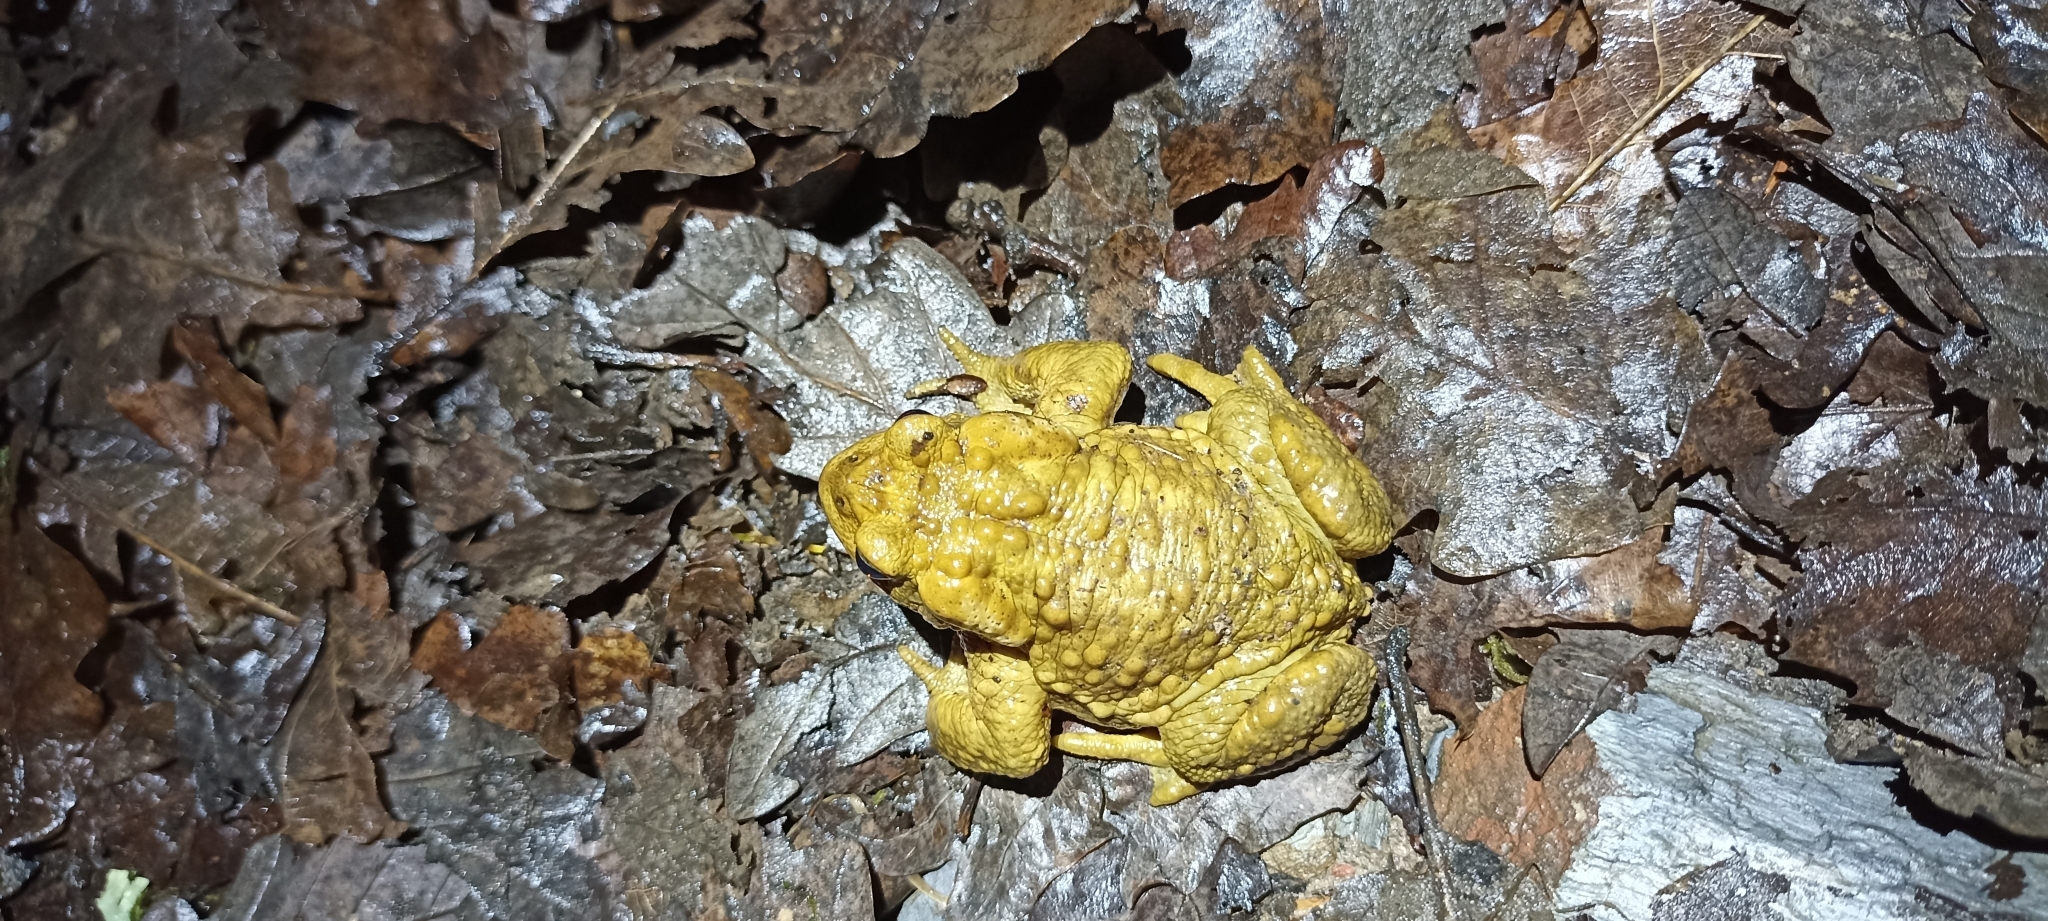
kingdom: Animalia
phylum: Chordata
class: Amphibia
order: Anura
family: Bufonidae
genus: Bufo
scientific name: Bufo spinosus
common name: Western common toad
